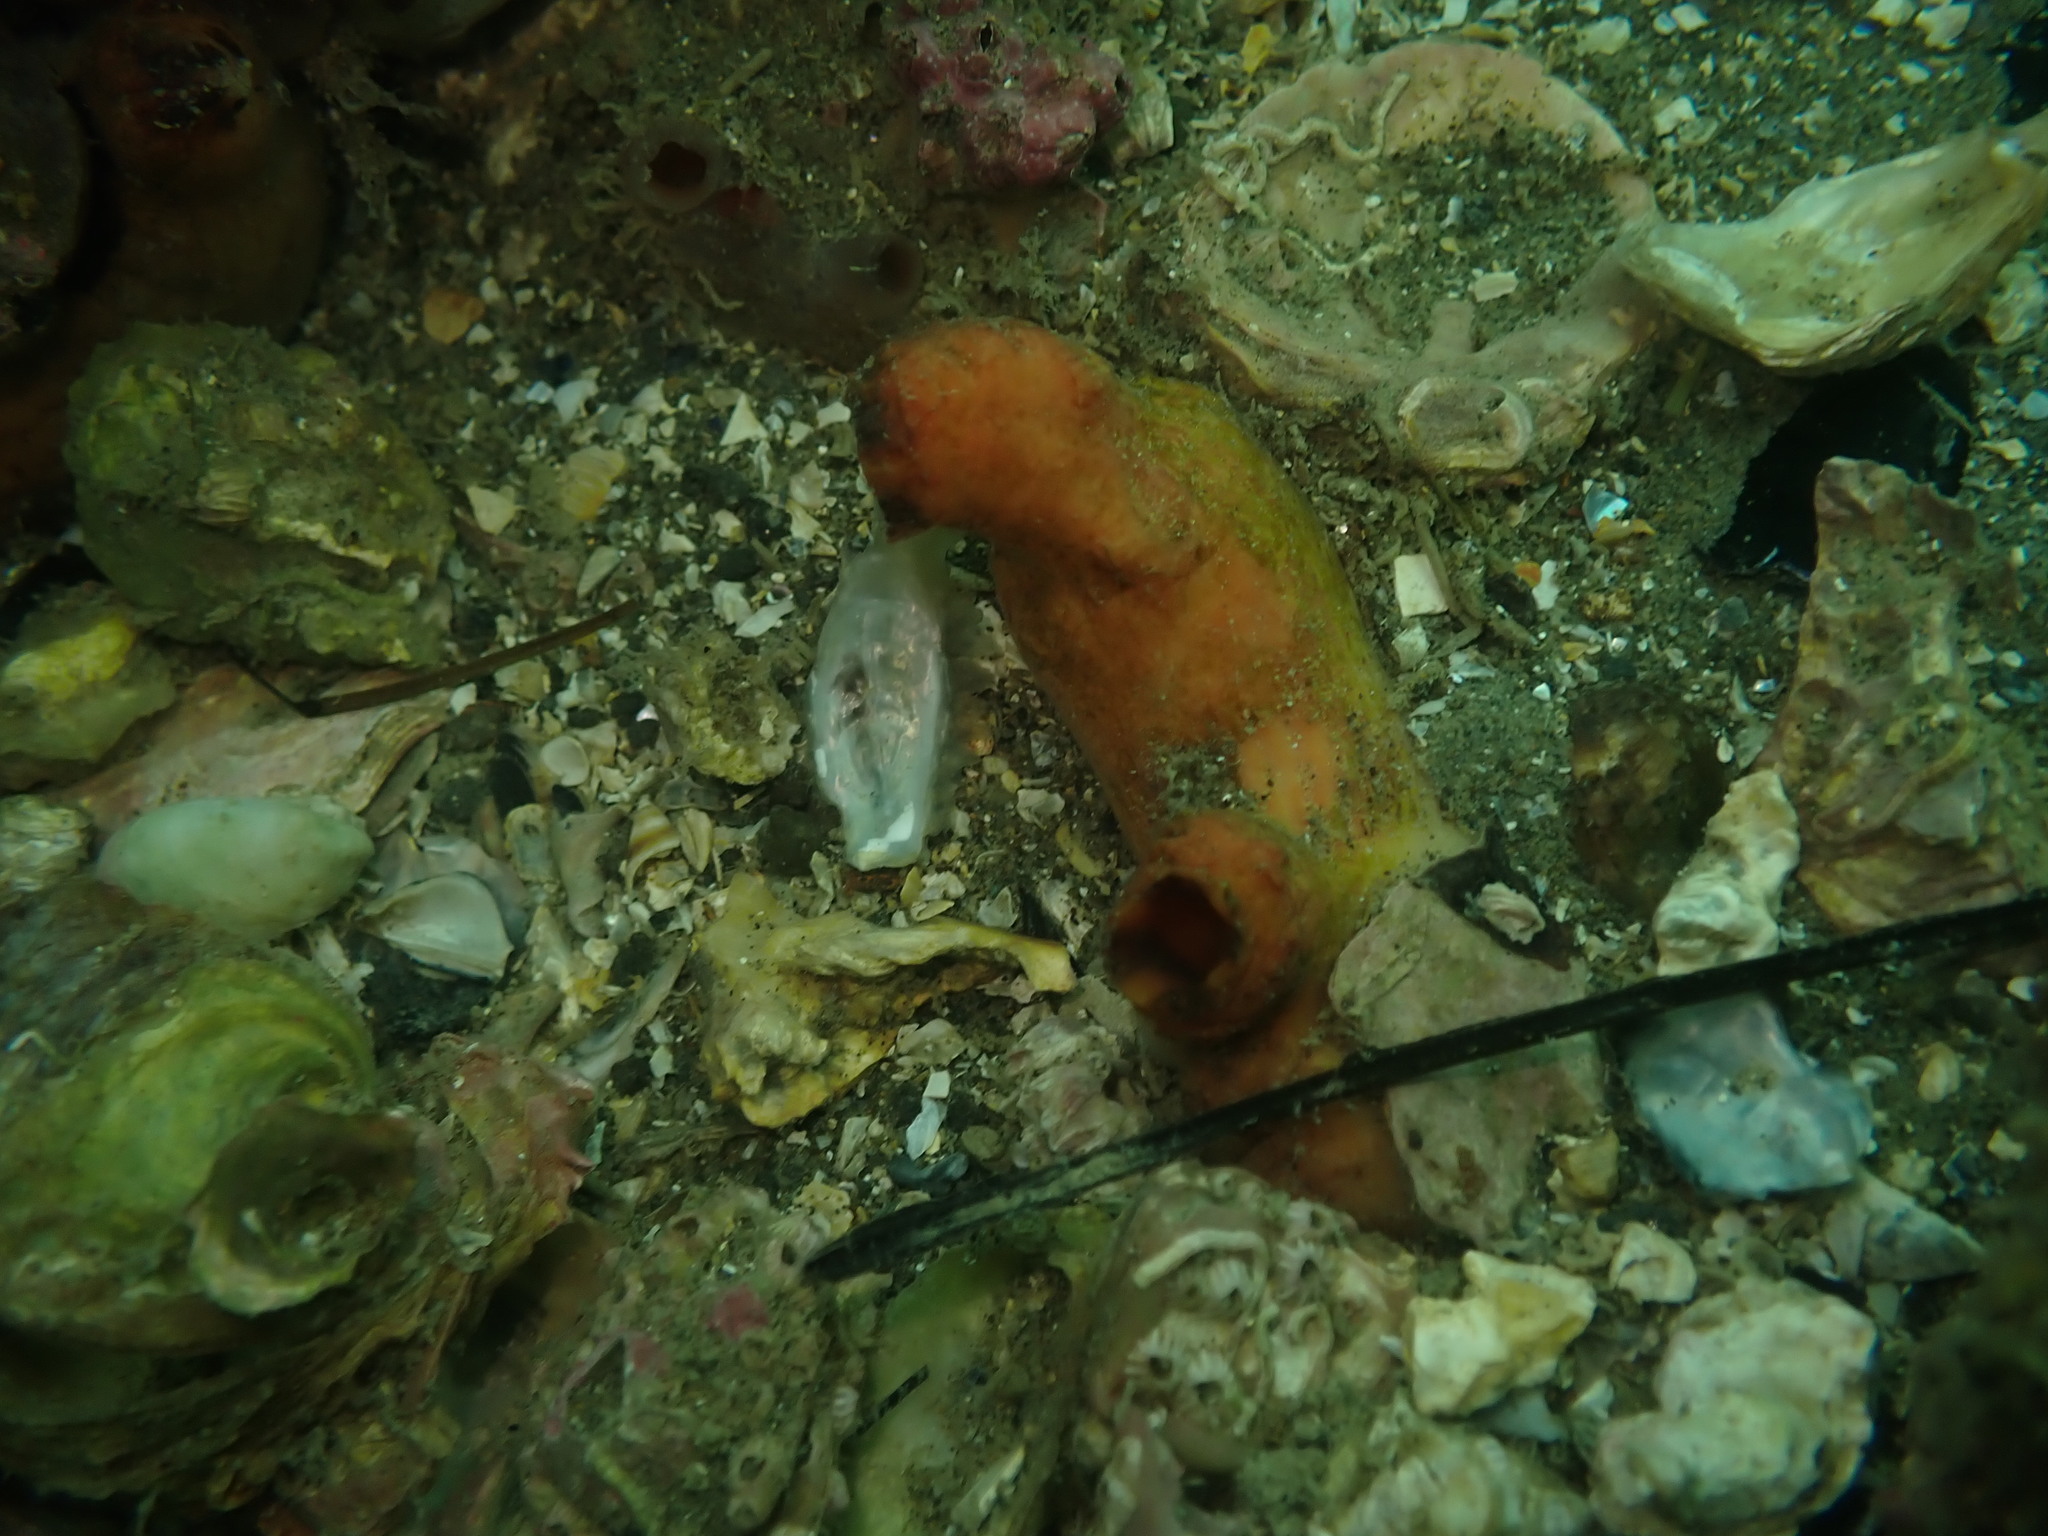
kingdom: Animalia
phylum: Chordata
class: Ascidiacea
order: Stolidobranchia
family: Styelidae
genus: Cnemidocarpa
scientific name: Cnemidocarpa bicornuta
